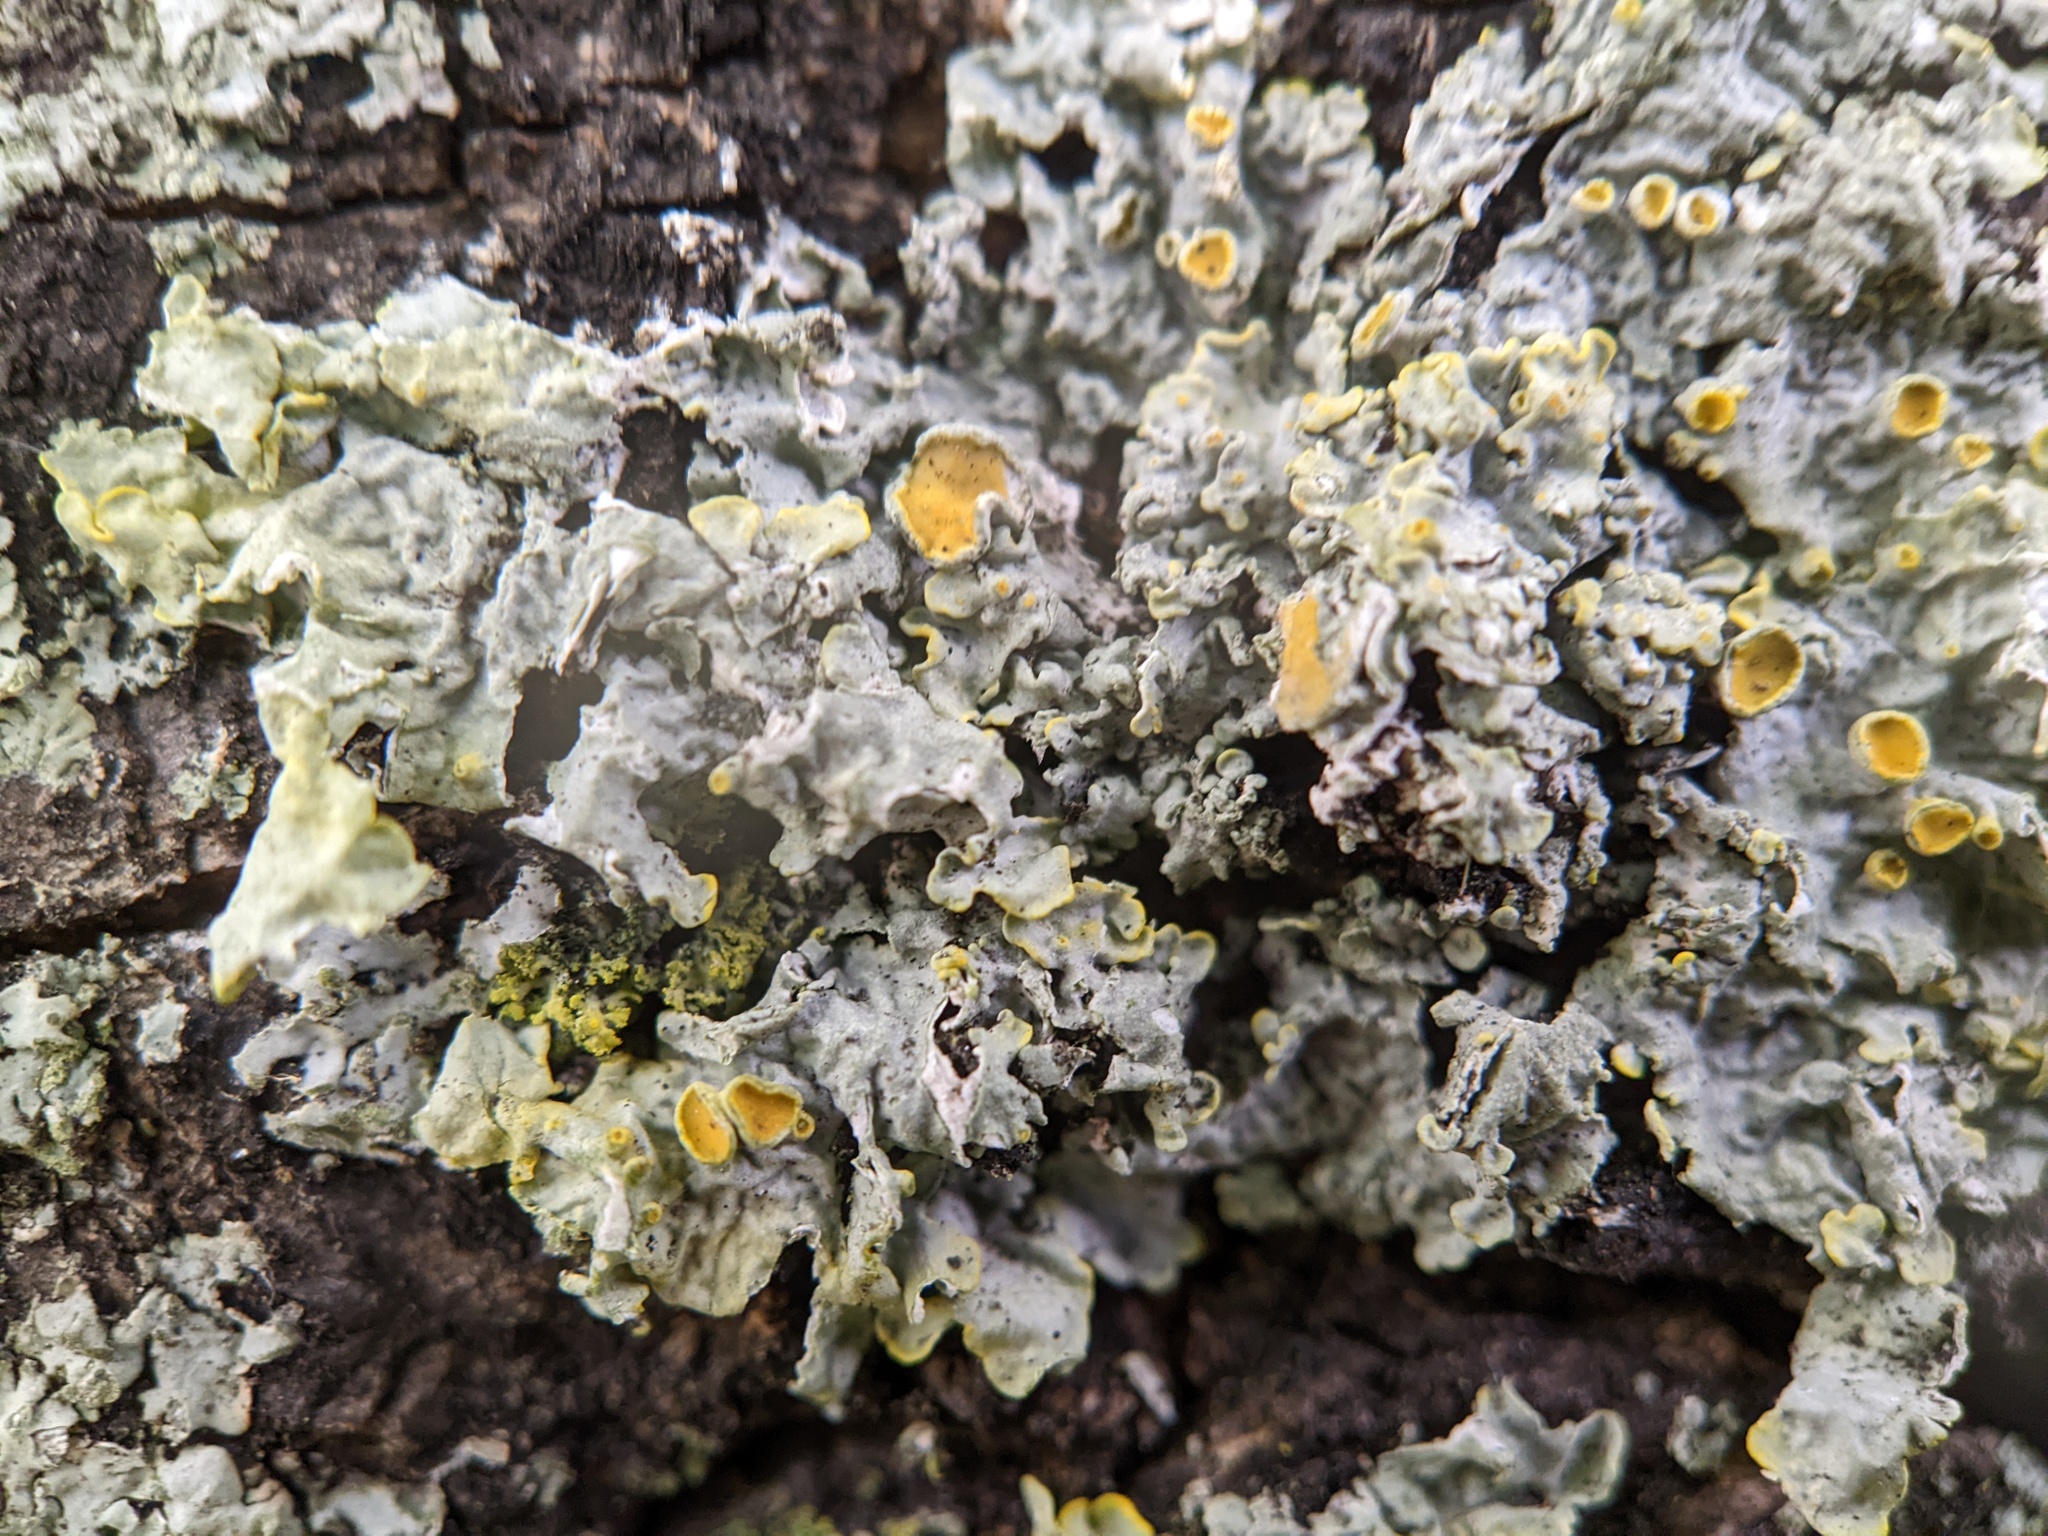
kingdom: Fungi
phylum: Ascomycota
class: Lecanoromycetes
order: Teloschistales
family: Teloschistaceae
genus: Xanthoria
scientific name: Xanthoria parietina
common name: Common orange lichen
